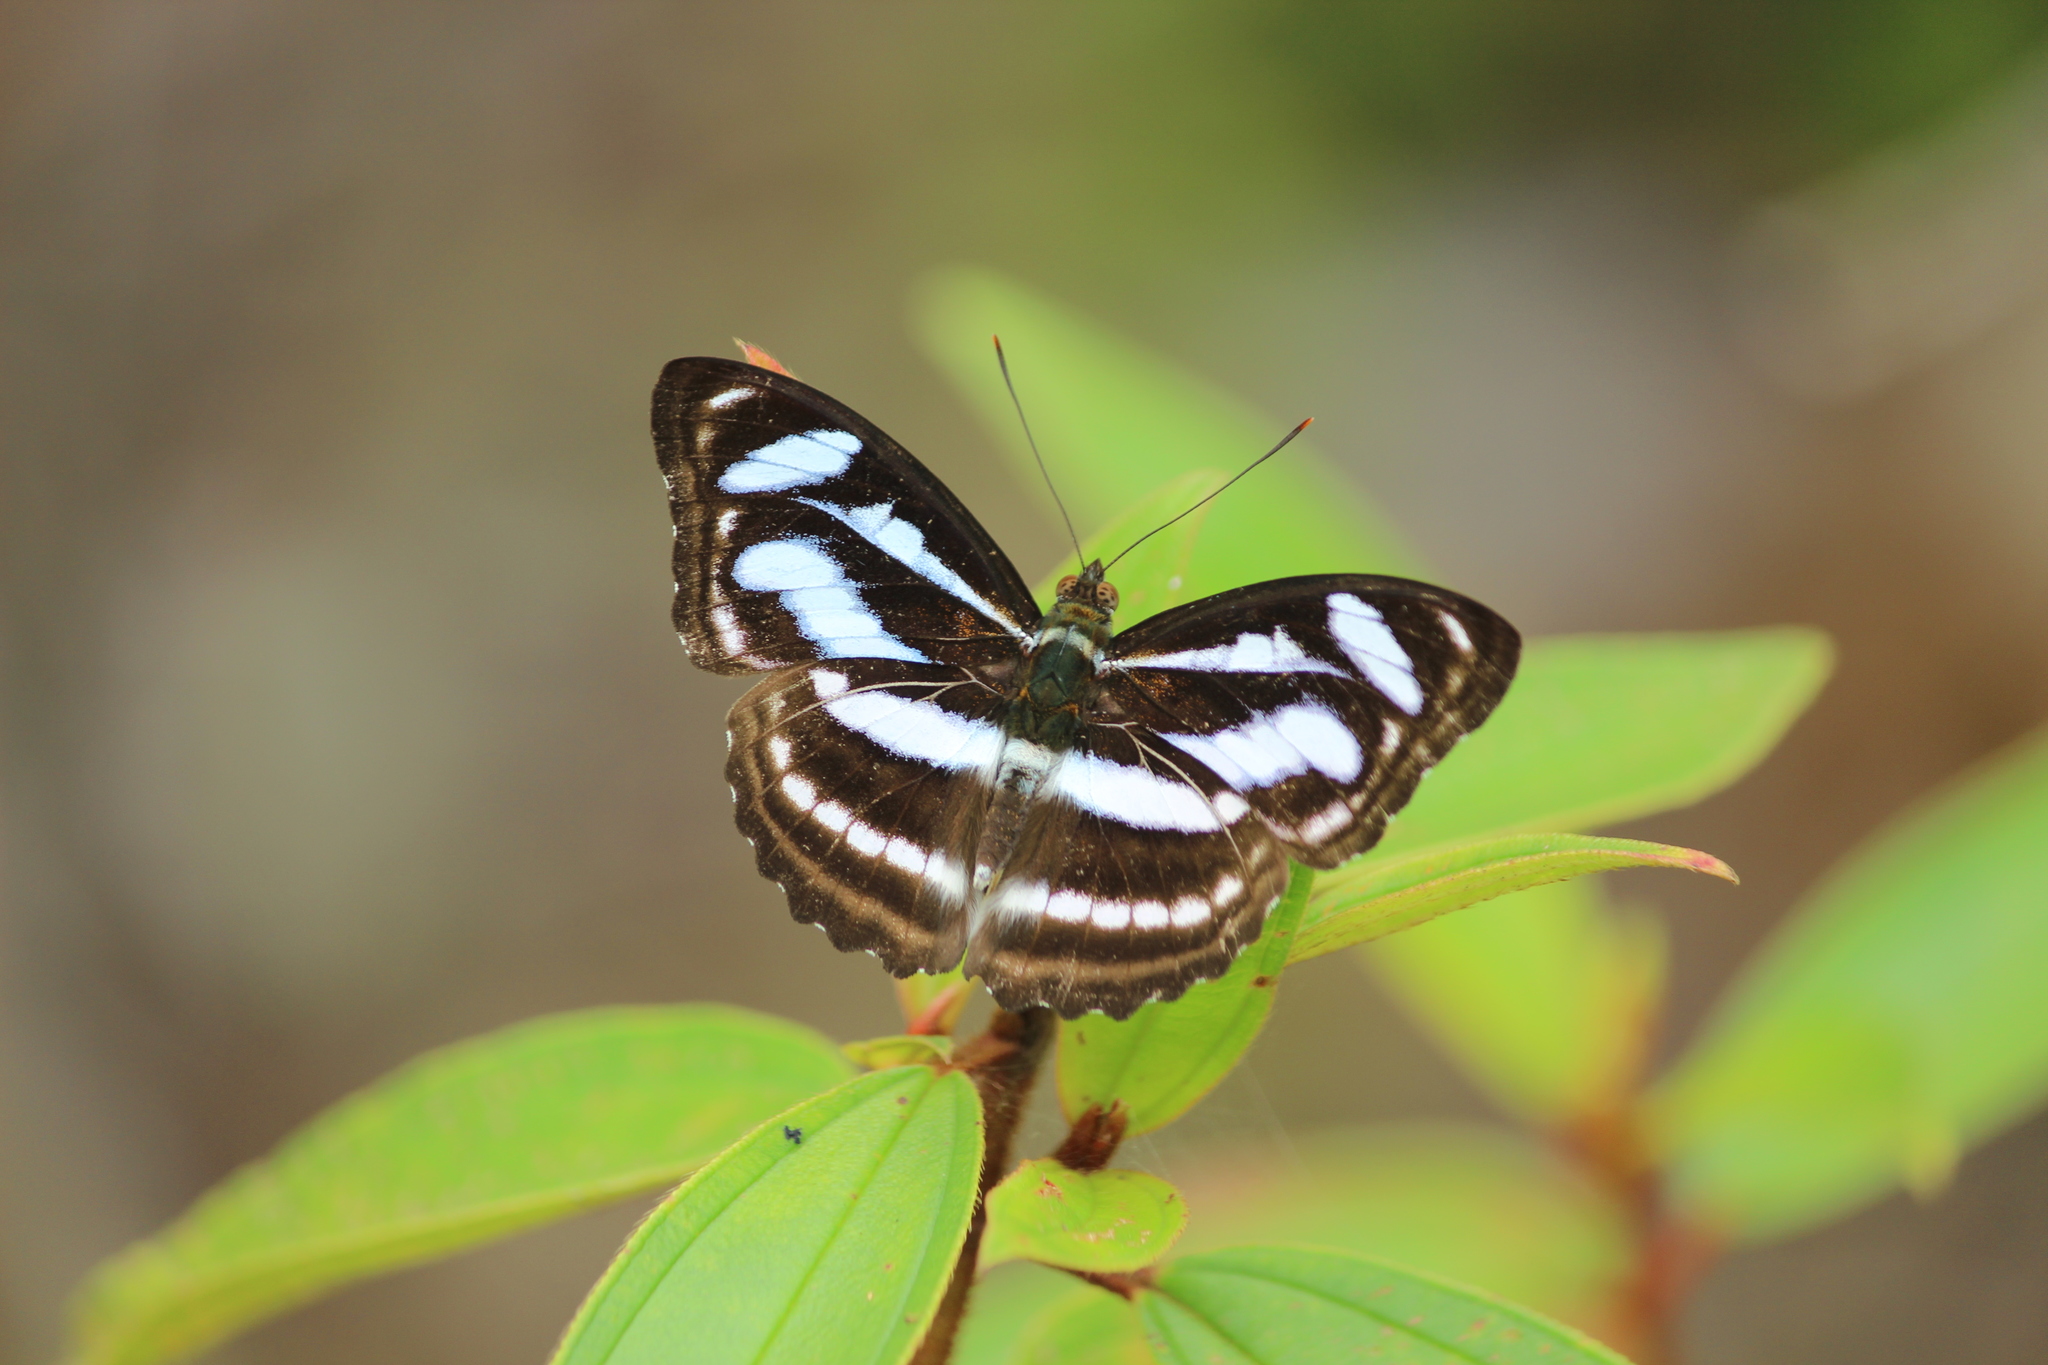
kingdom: Animalia
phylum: Arthropoda
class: Insecta
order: Lepidoptera
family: Nymphalidae
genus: Parathyma
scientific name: Parathyma nefte
